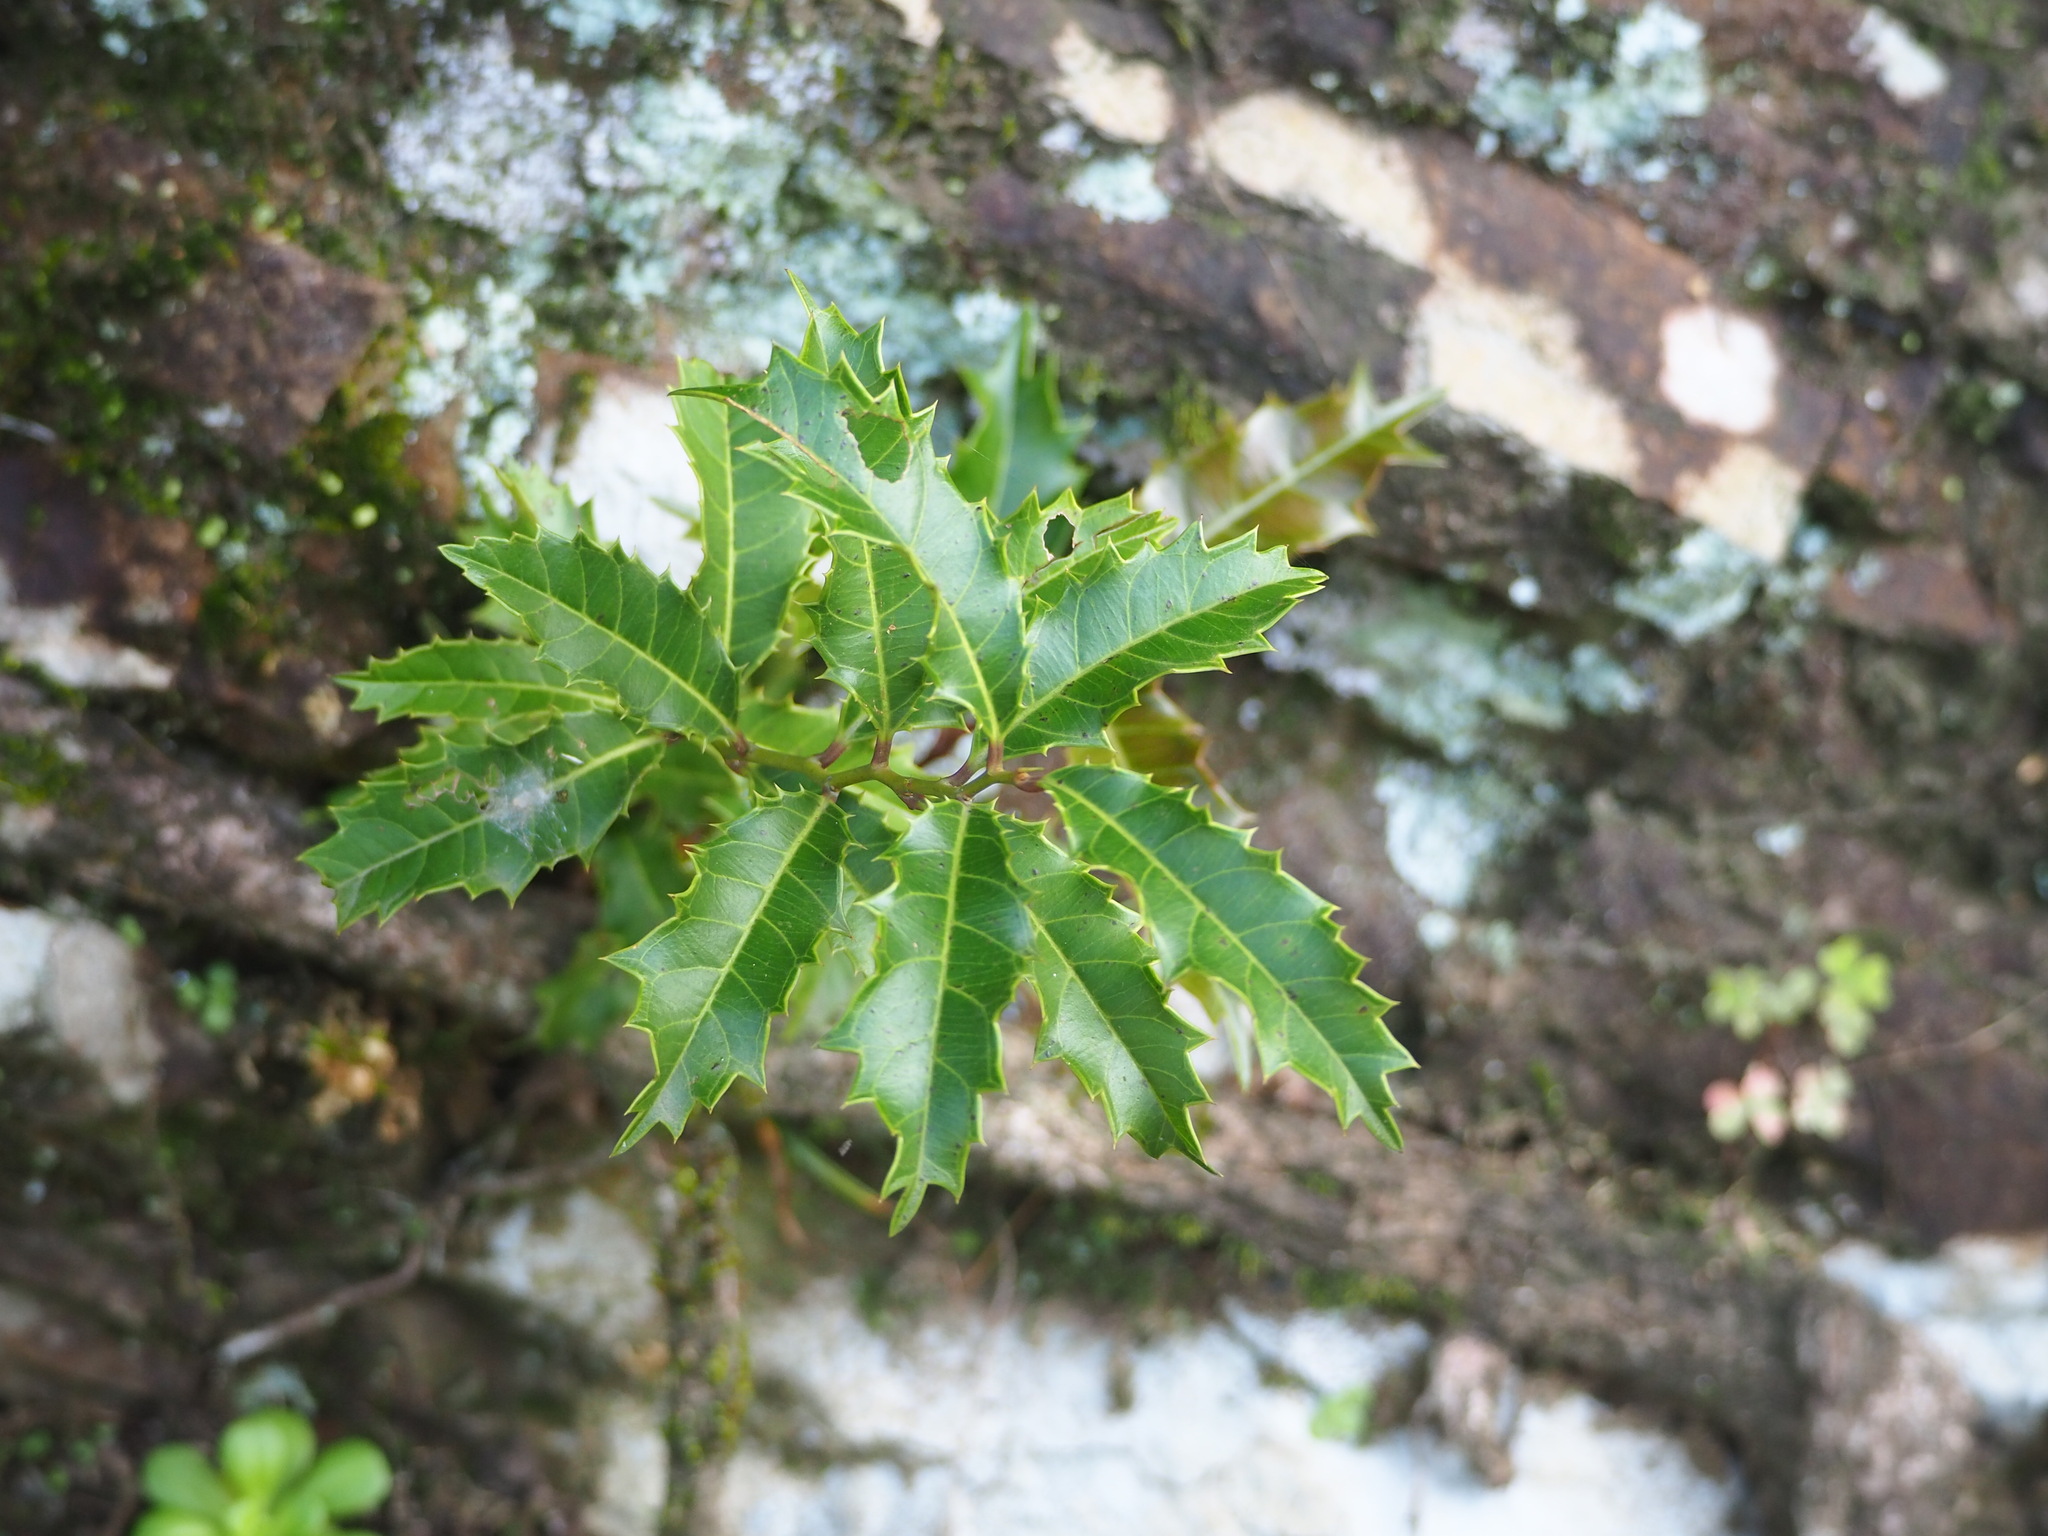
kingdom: Plantae
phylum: Tracheophyta
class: Magnoliopsida
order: Saxifragales
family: Iteaceae
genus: Itea
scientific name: Itea oldhamii
